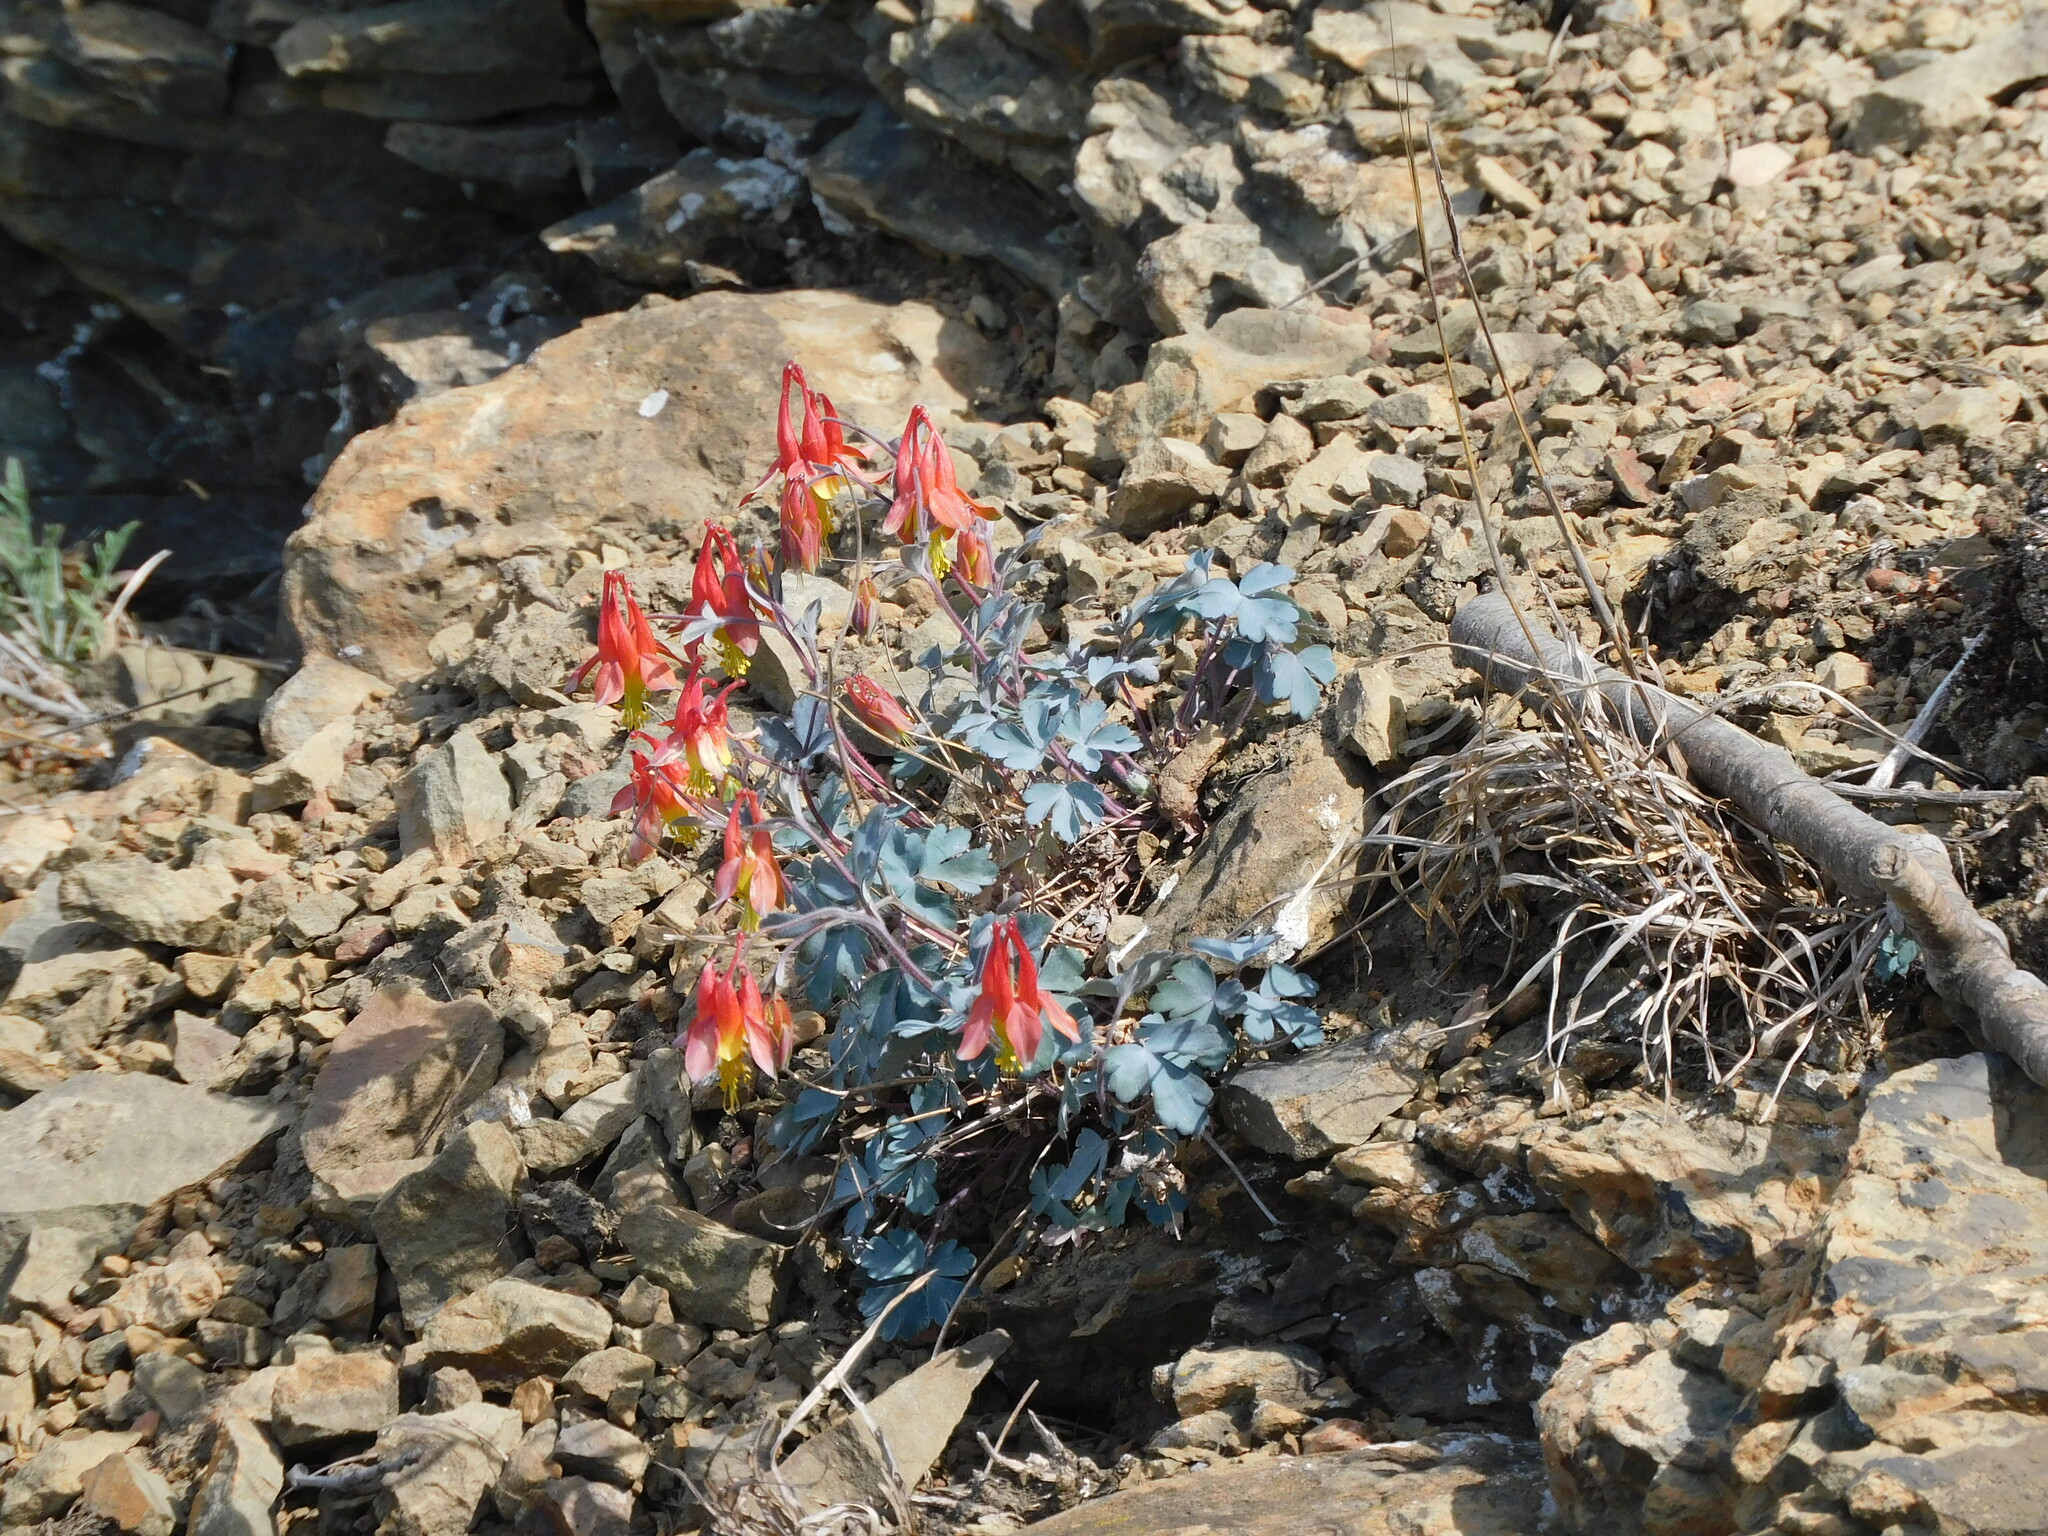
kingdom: Plantae
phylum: Tracheophyta
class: Magnoliopsida
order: Ranunculales
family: Ranunculaceae
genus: Aquilegia
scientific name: Aquilegia canadensis
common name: American columbine
